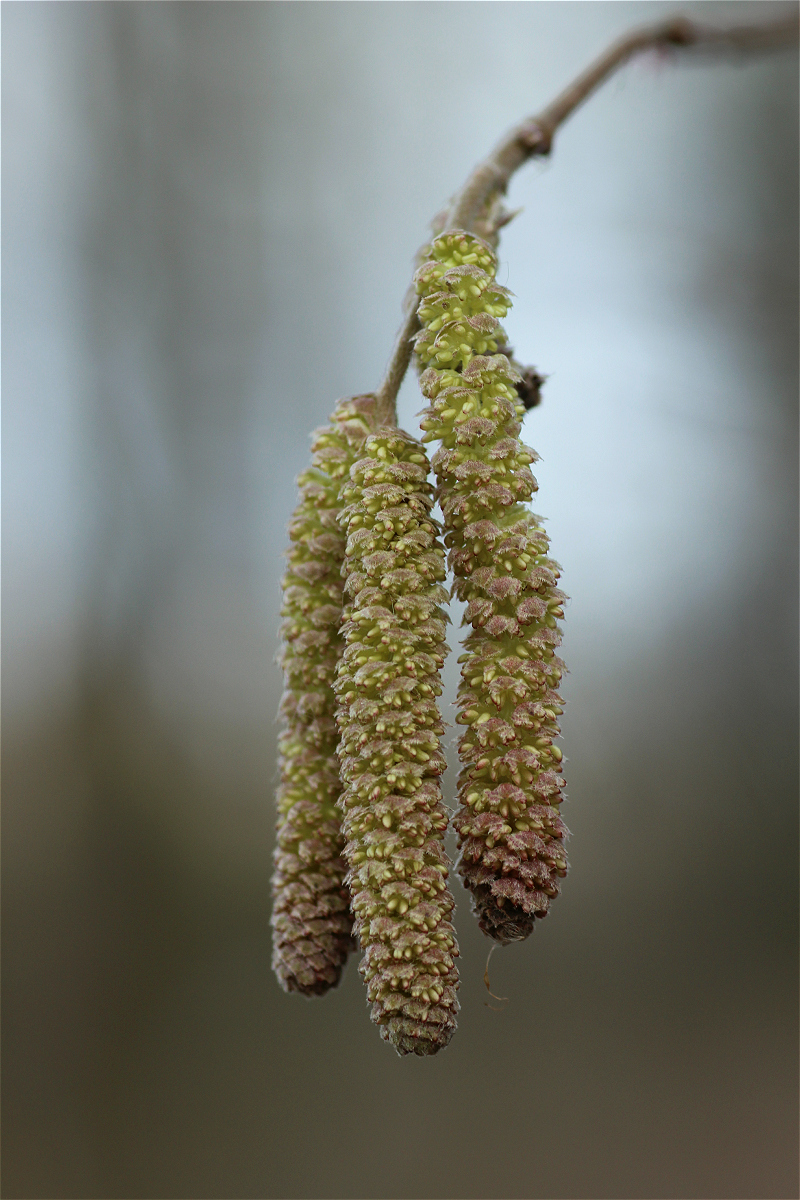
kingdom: Plantae
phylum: Tracheophyta
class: Magnoliopsida
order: Fagales
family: Betulaceae
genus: Corylus
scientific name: Corylus avellana
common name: European hazel
